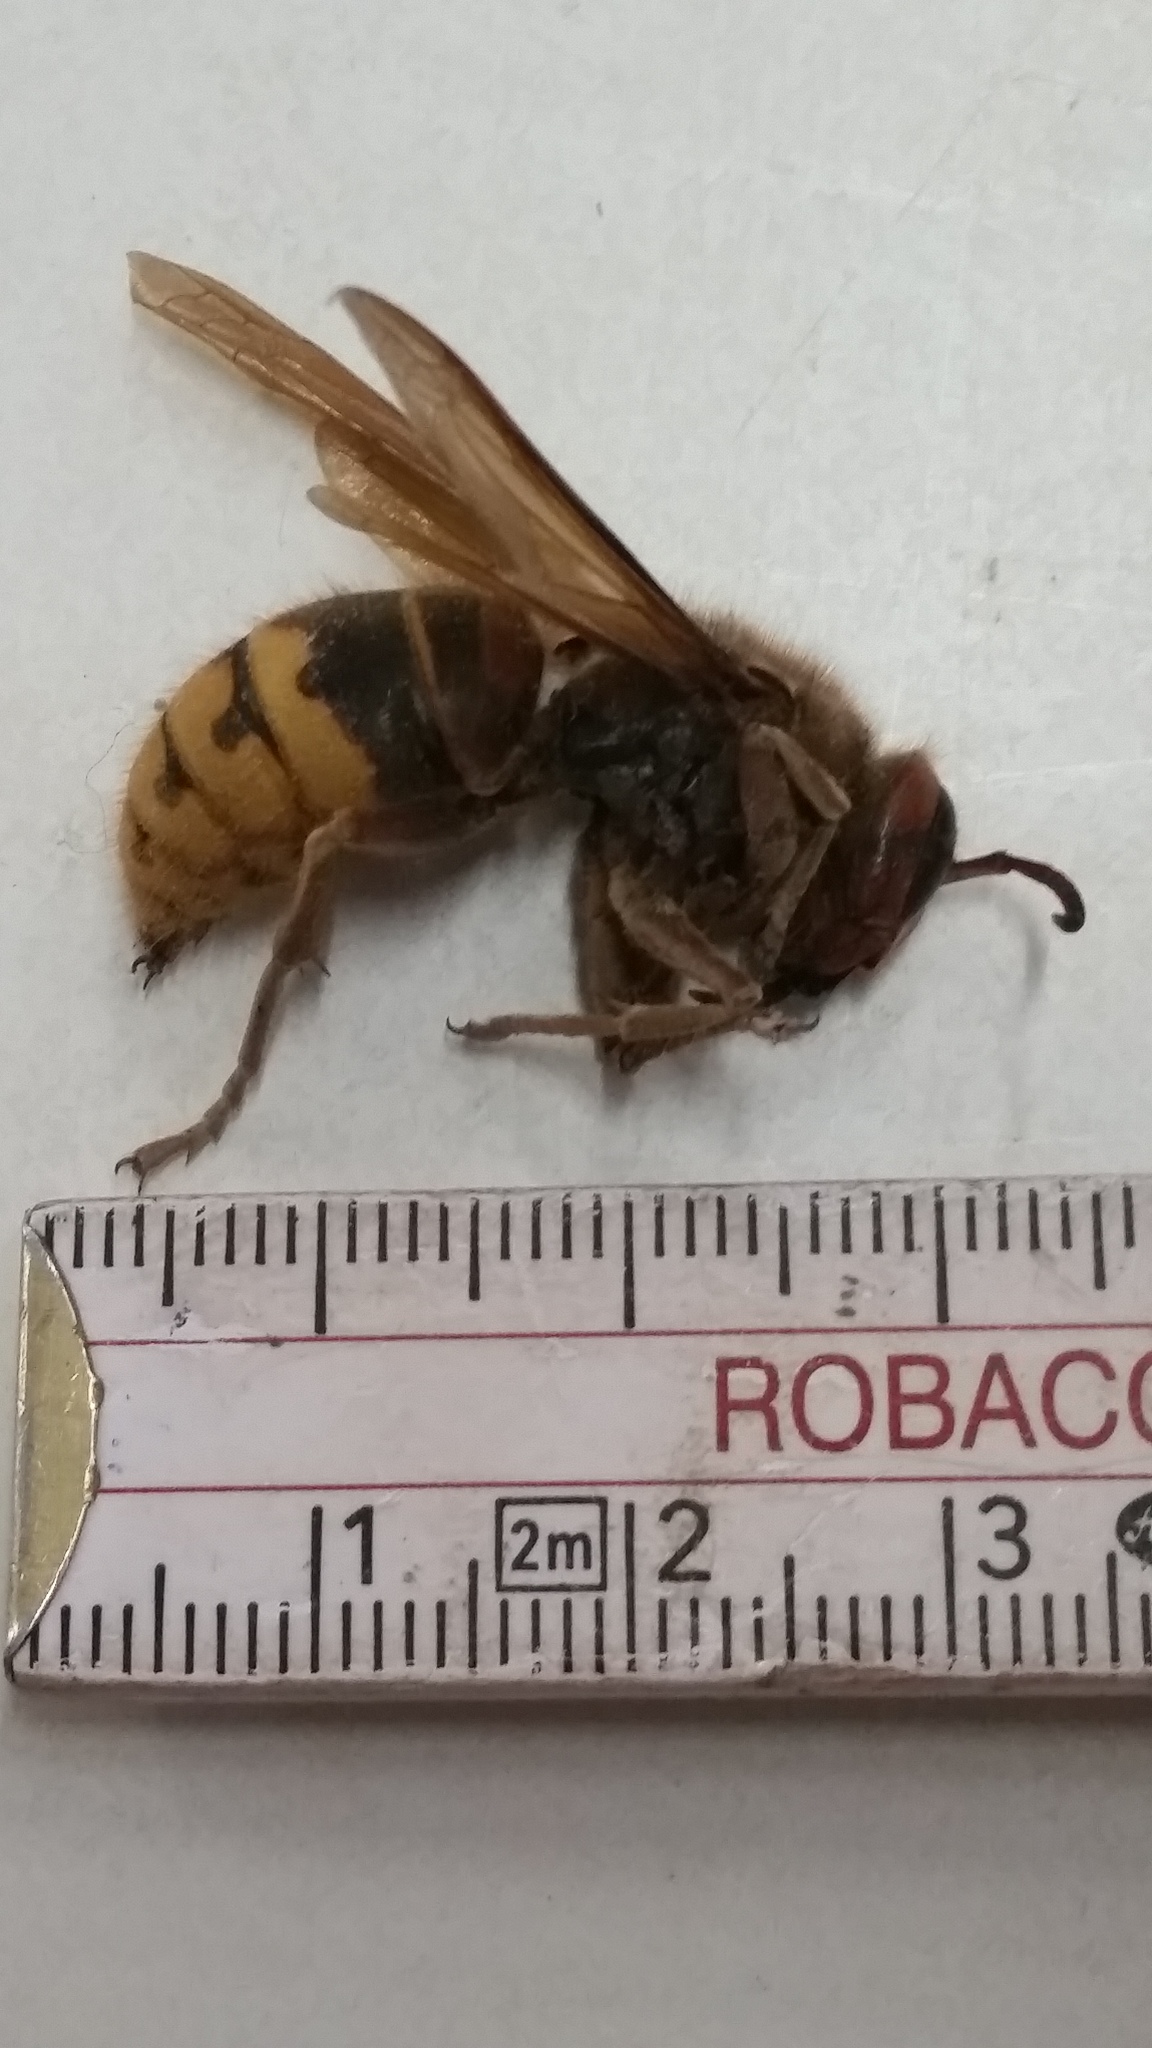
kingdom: Animalia
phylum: Arthropoda
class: Insecta
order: Hymenoptera
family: Vespidae
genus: Vespa
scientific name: Vespa crabro
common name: Hornet
